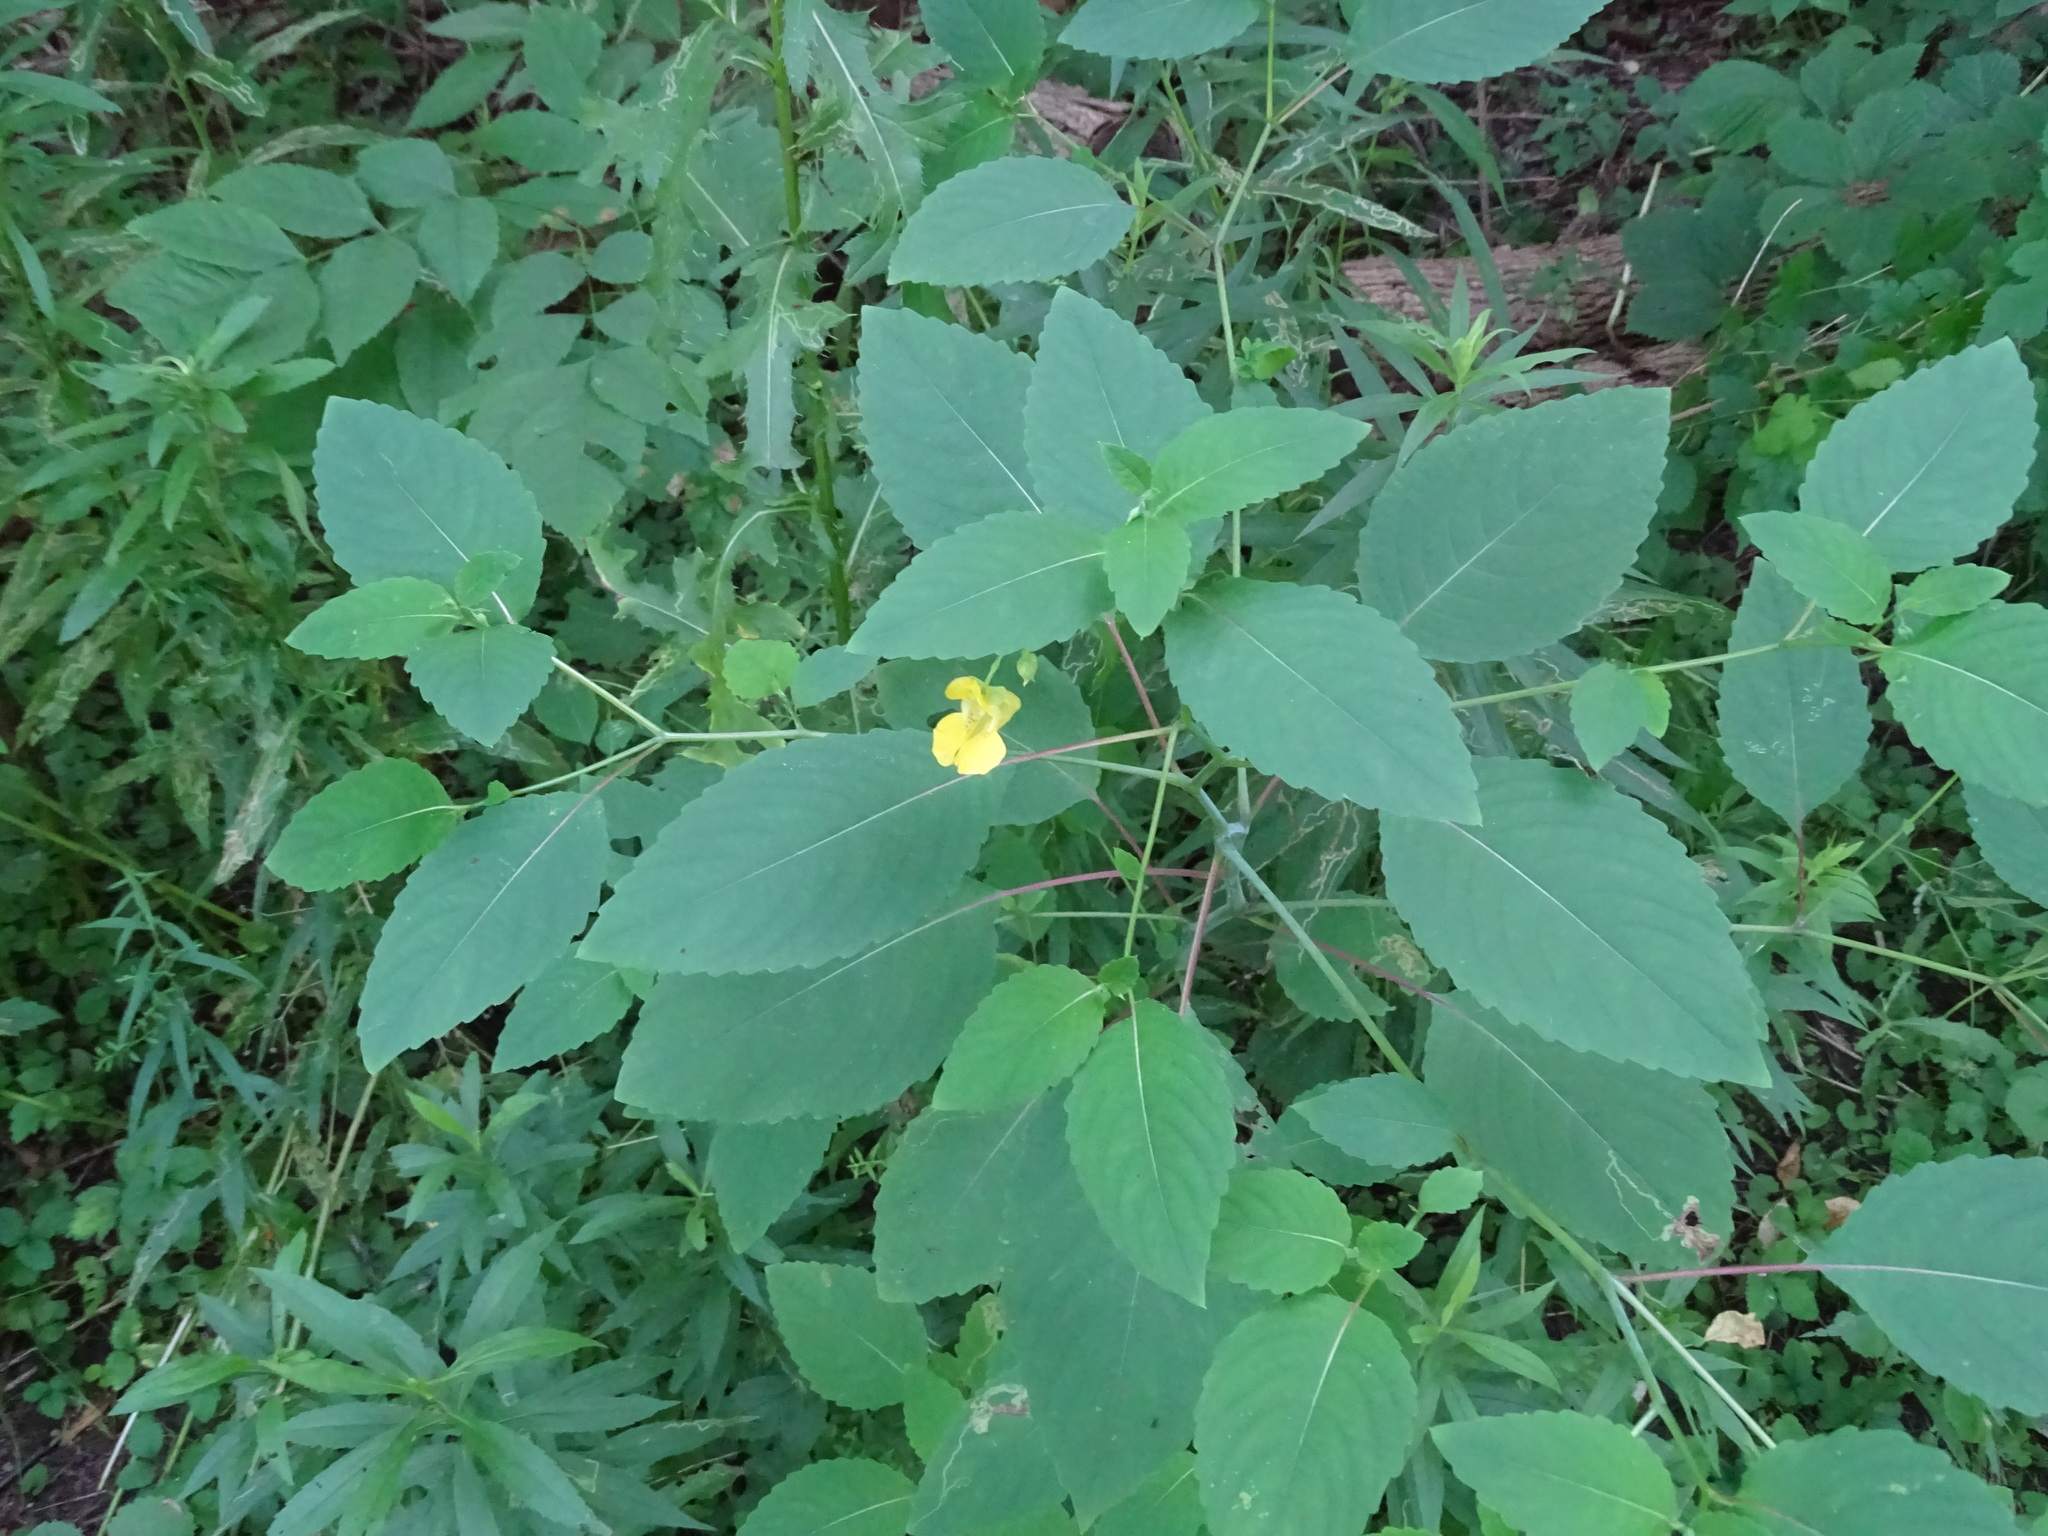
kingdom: Plantae
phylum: Tracheophyta
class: Magnoliopsida
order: Ericales
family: Balsaminaceae
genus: Impatiens
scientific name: Impatiens pallida
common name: Pale snapweed
